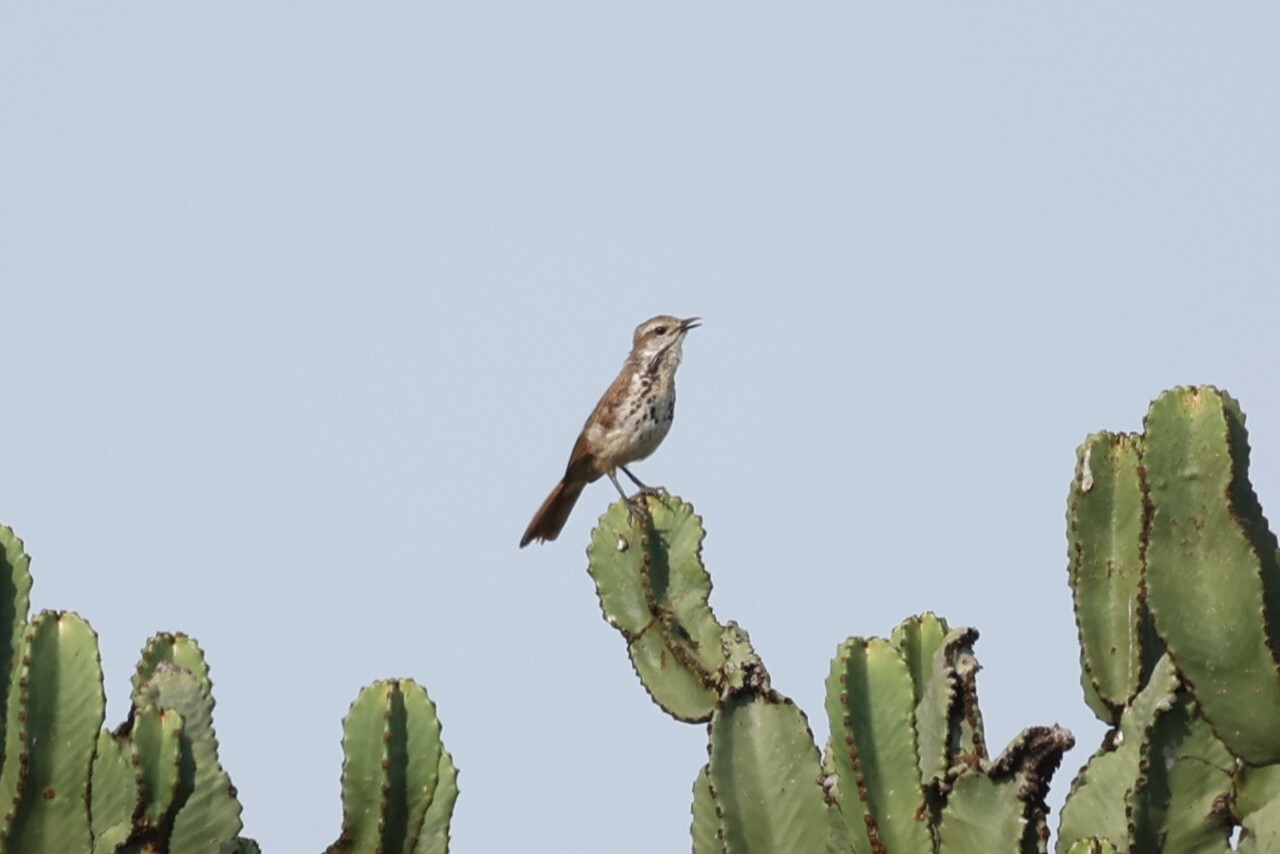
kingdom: Animalia
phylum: Chordata
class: Aves
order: Passeriformes
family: Muscicapidae
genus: Cichladusa
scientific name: Cichladusa guttata
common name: Spotted palm thrush
